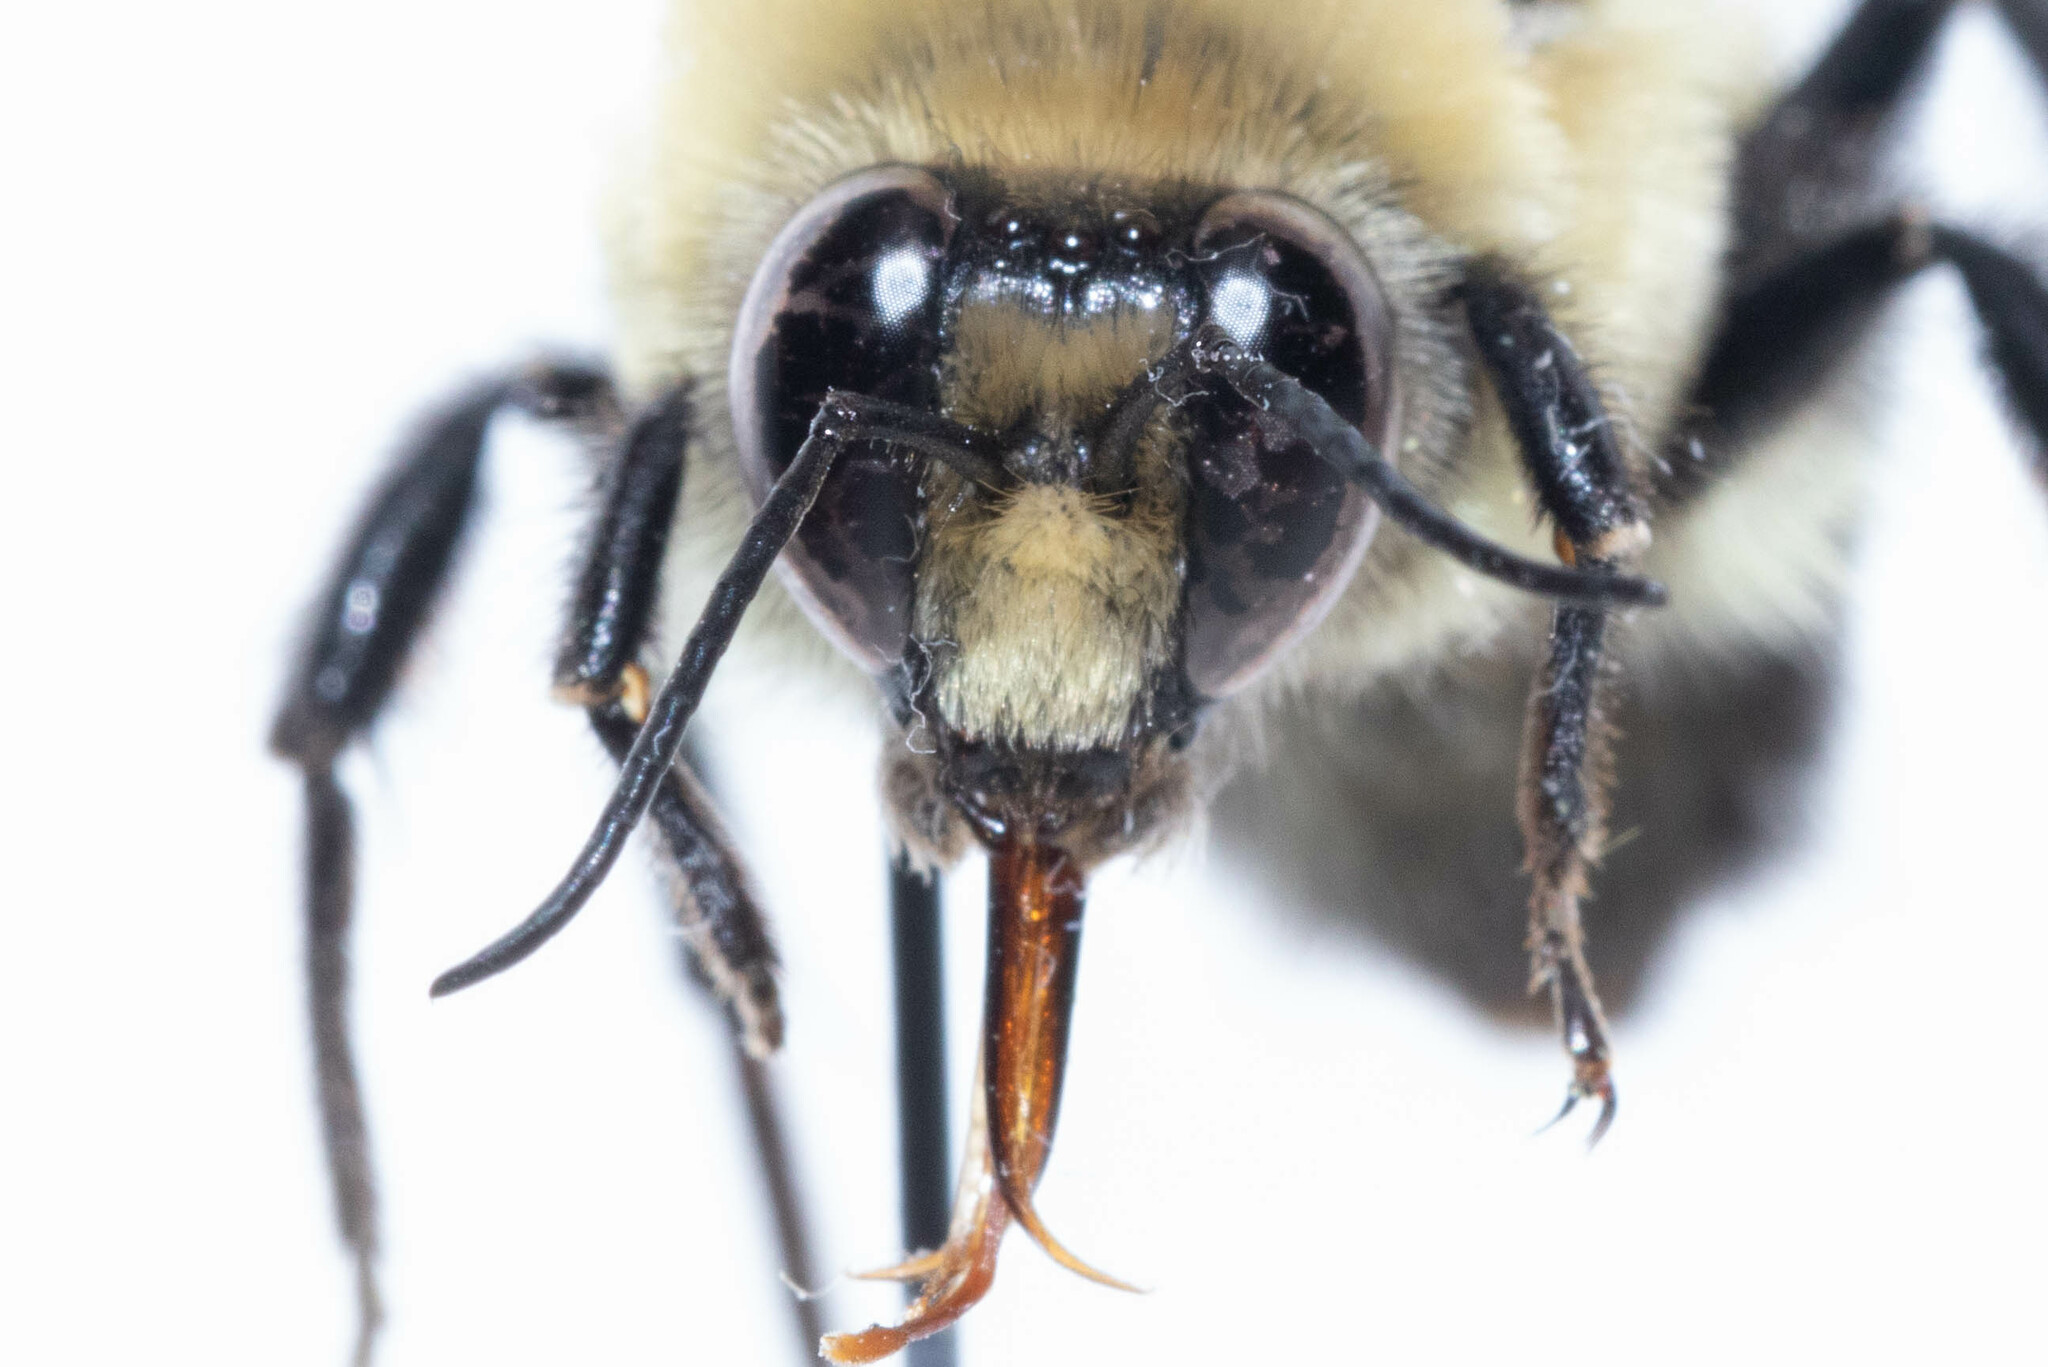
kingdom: Animalia
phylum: Arthropoda
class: Insecta
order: Hymenoptera
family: Apidae
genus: Bombus
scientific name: Bombus griseocollis
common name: Brown-belted bumble bee
